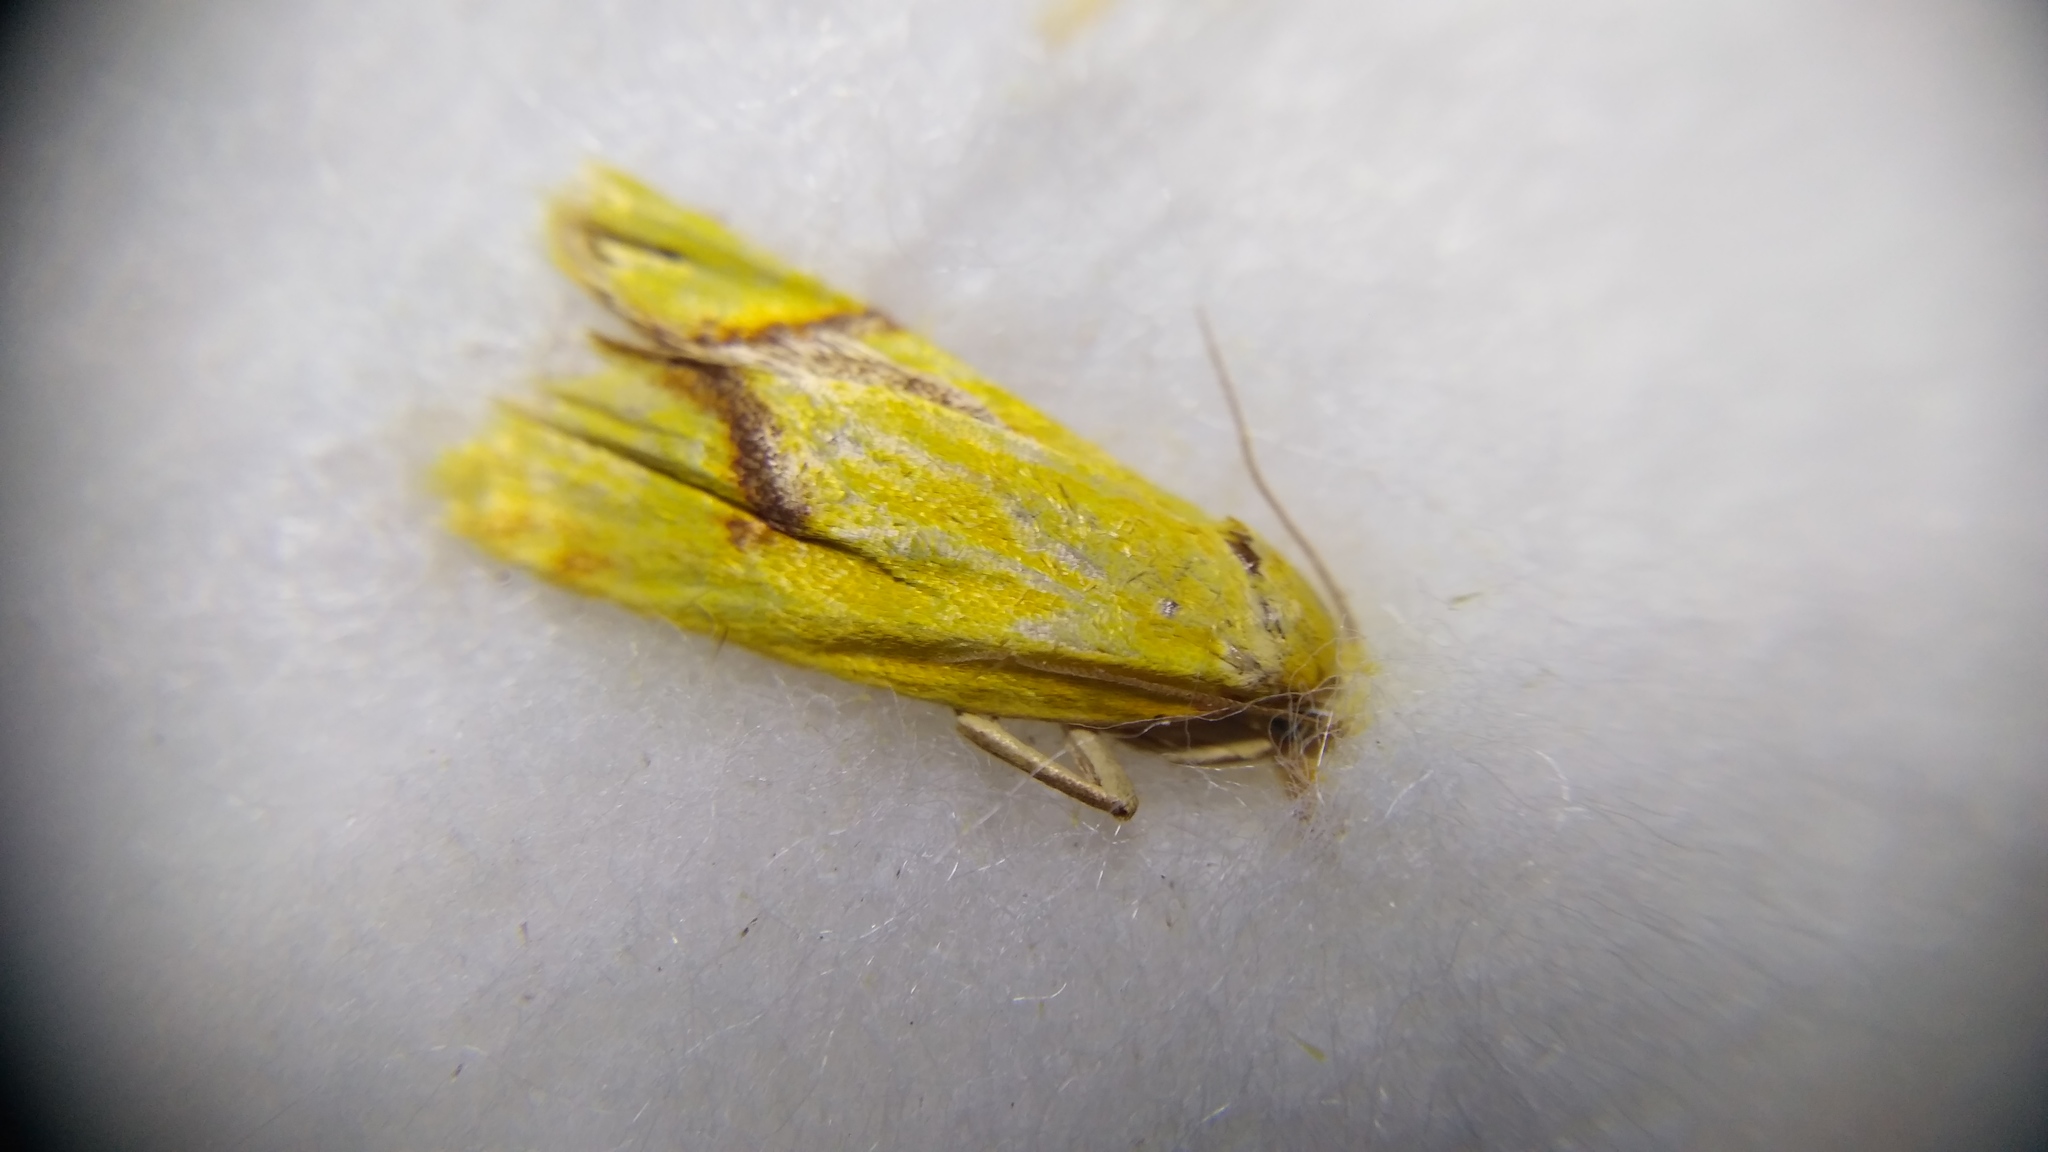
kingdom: Animalia
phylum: Arthropoda
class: Insecta
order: Lepidoptera
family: Tortricidae
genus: Agapeta
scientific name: Agapeta hamana
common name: Common yellow conch
